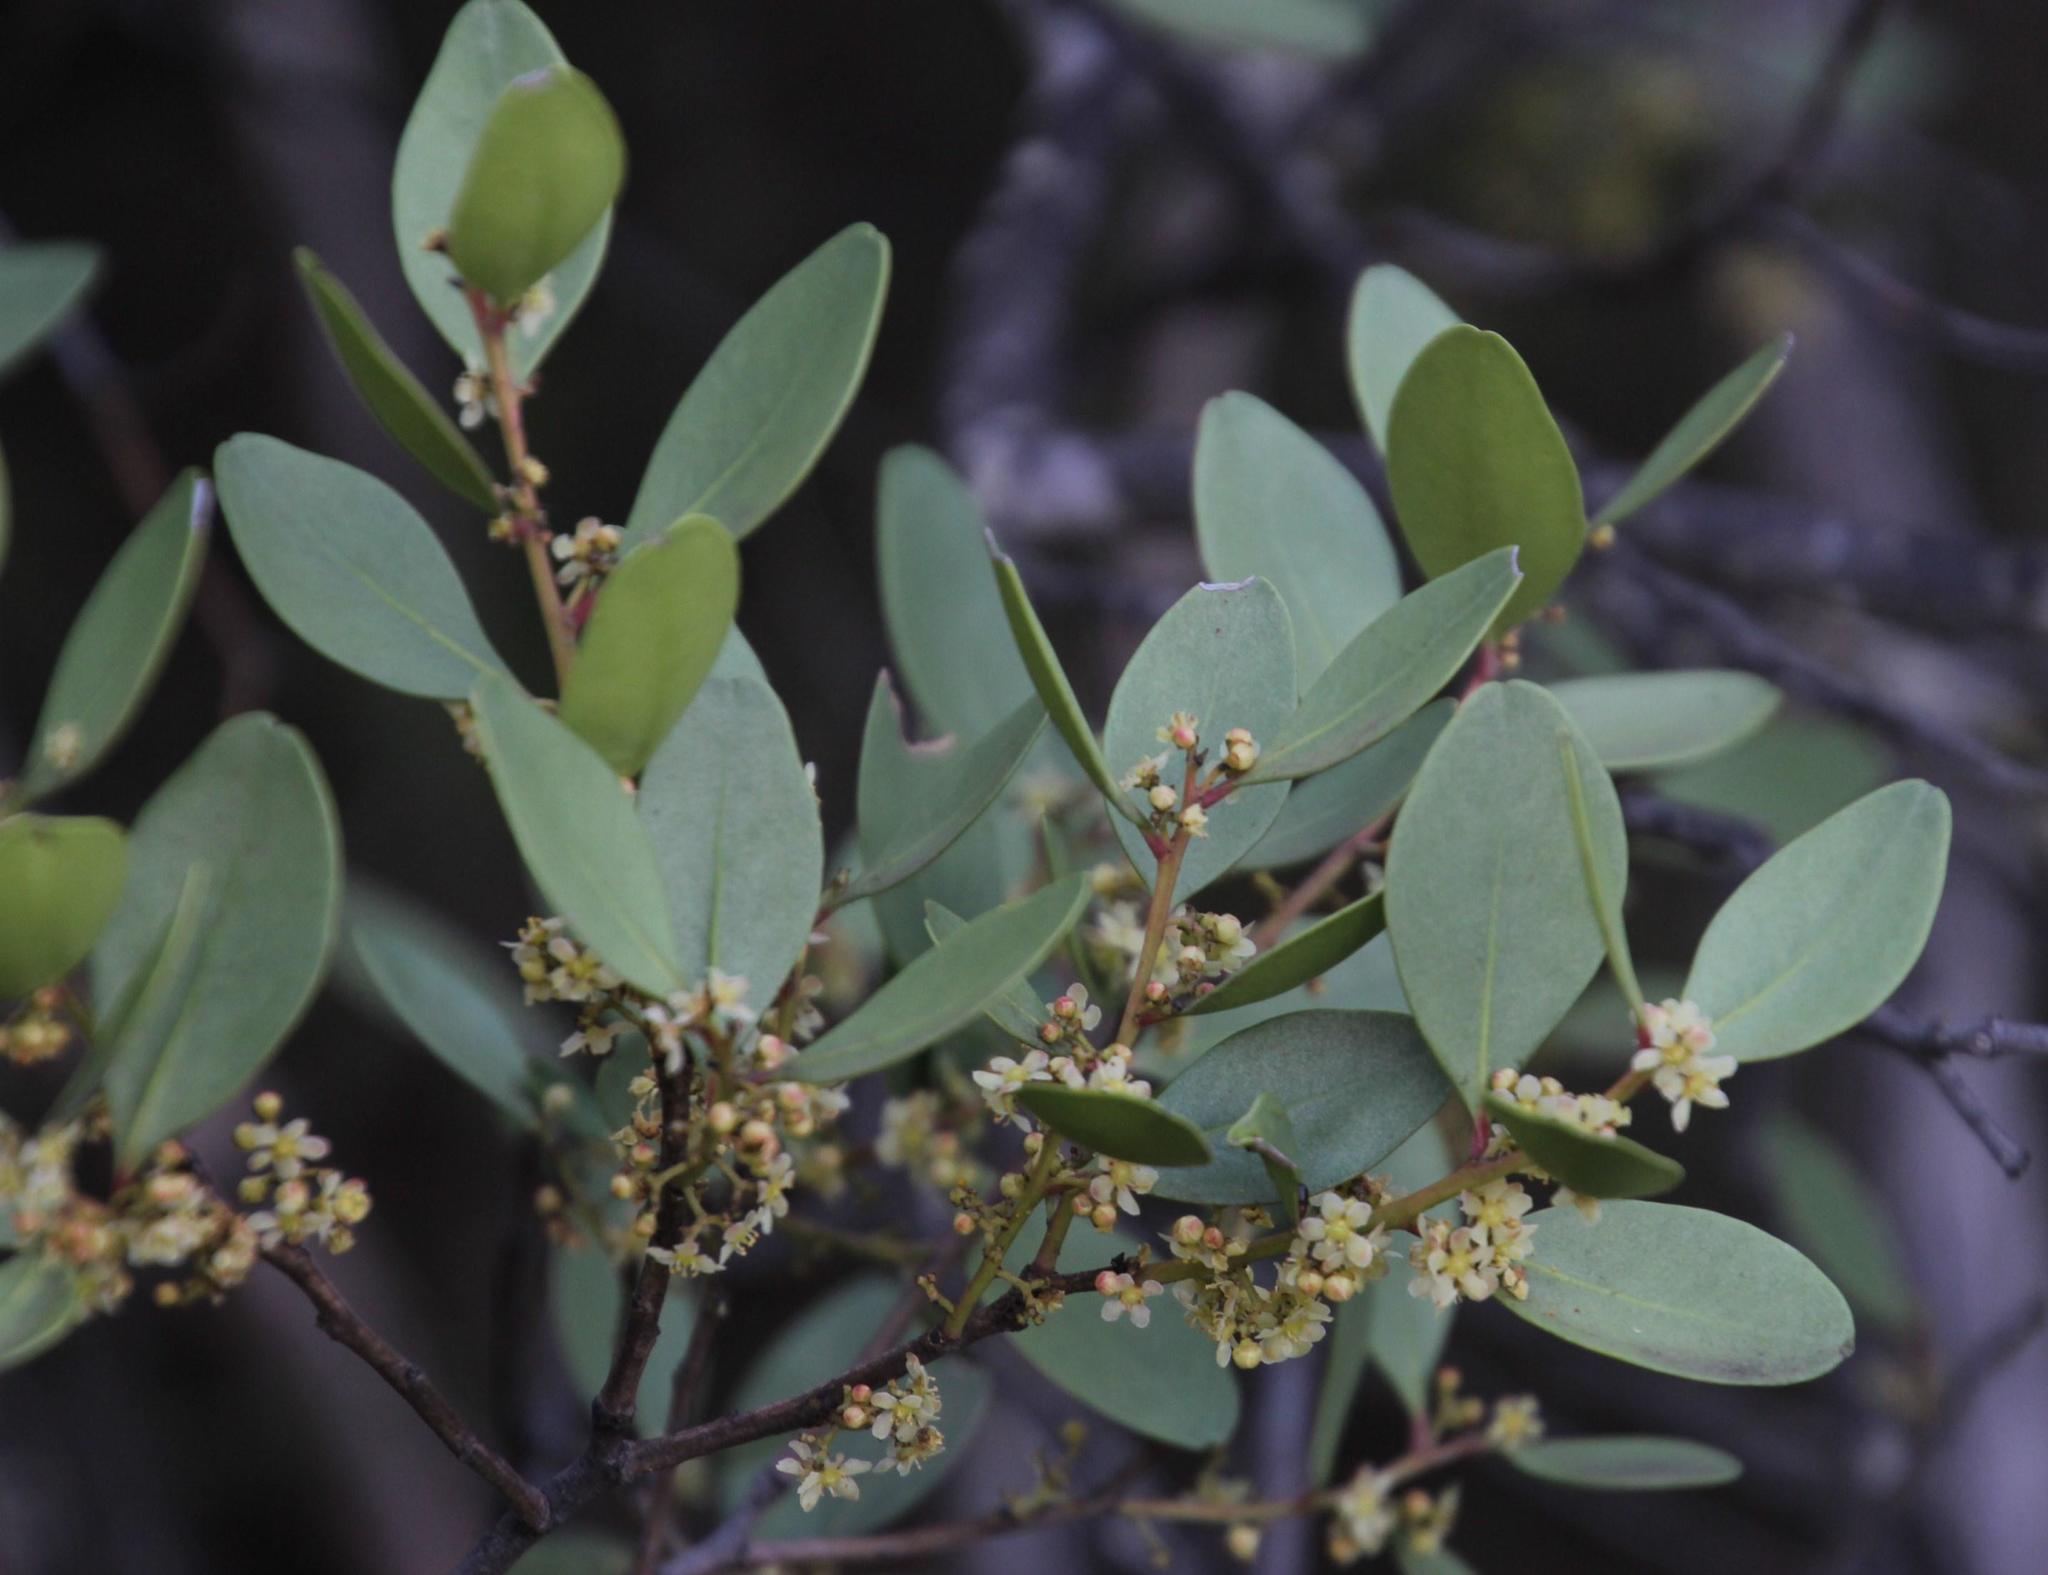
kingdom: Plantae
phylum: Tracheophyta
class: Magnoliopsida
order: Celastrales
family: Celastraceae
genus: Gymnosporia
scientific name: Gymnosporia laurina
